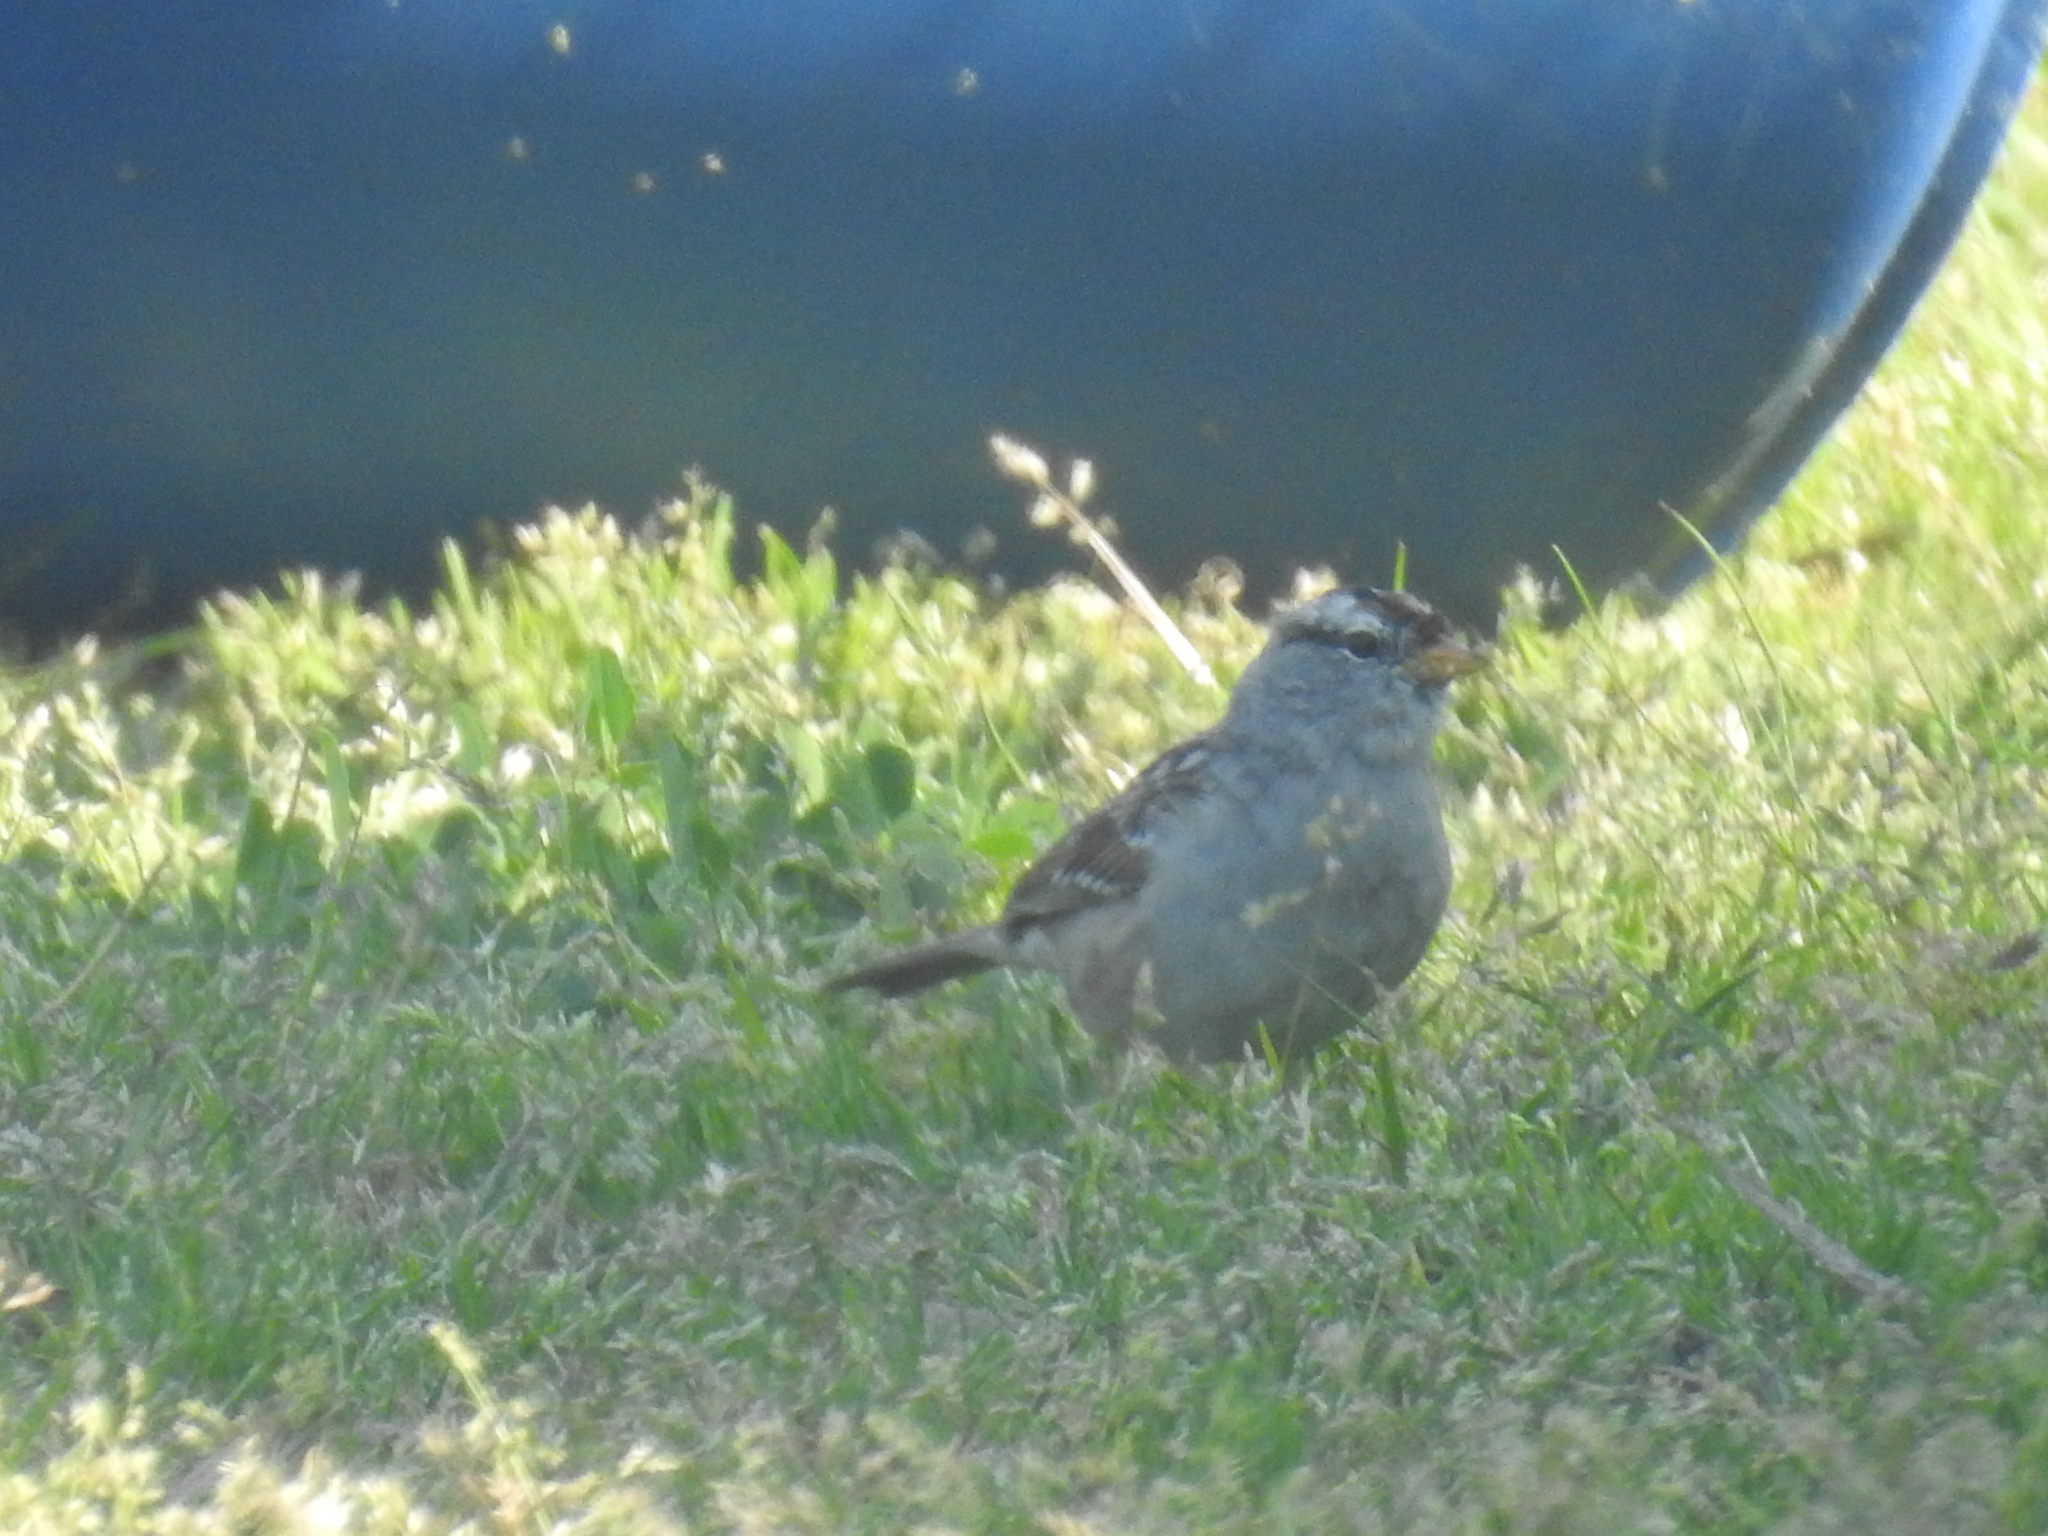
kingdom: Animalia
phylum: Chordata
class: Aves
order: Passeriformes
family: Passerellidae
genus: Zonotrichia
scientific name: Zonotrichia leucophrys
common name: White-crowned sparrow
